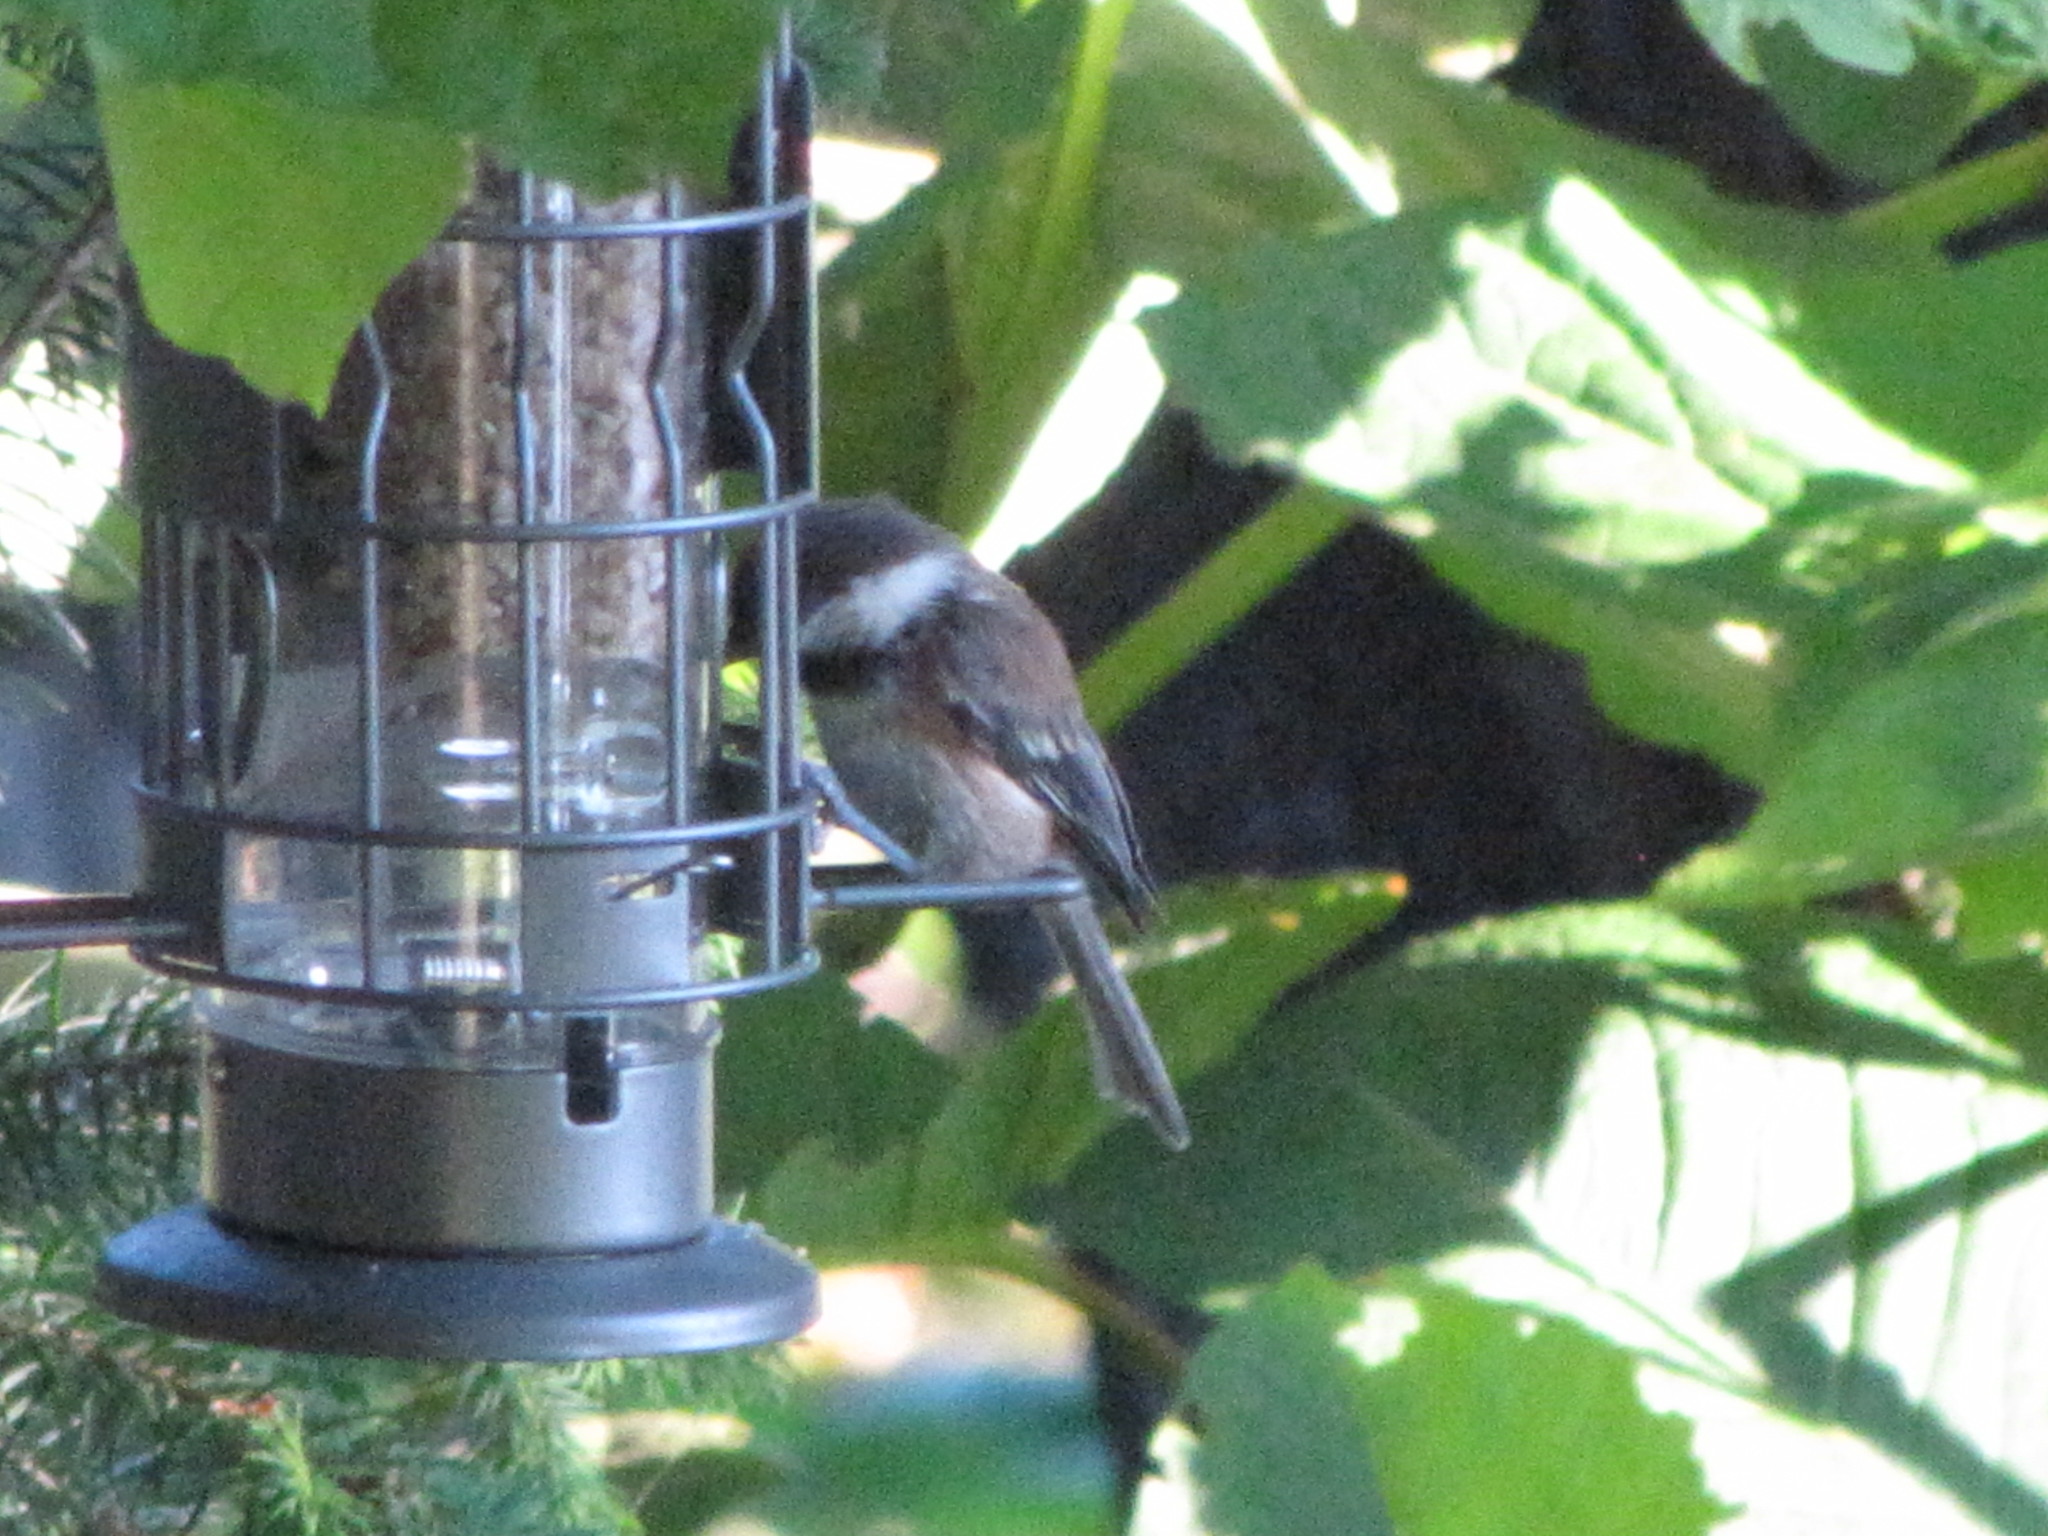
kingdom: Animalia
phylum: Chordata
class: Aves
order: Passeriformes
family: Paridae
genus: Poecile
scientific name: Poecile rufescens
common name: Chestnut-backed chickadee
